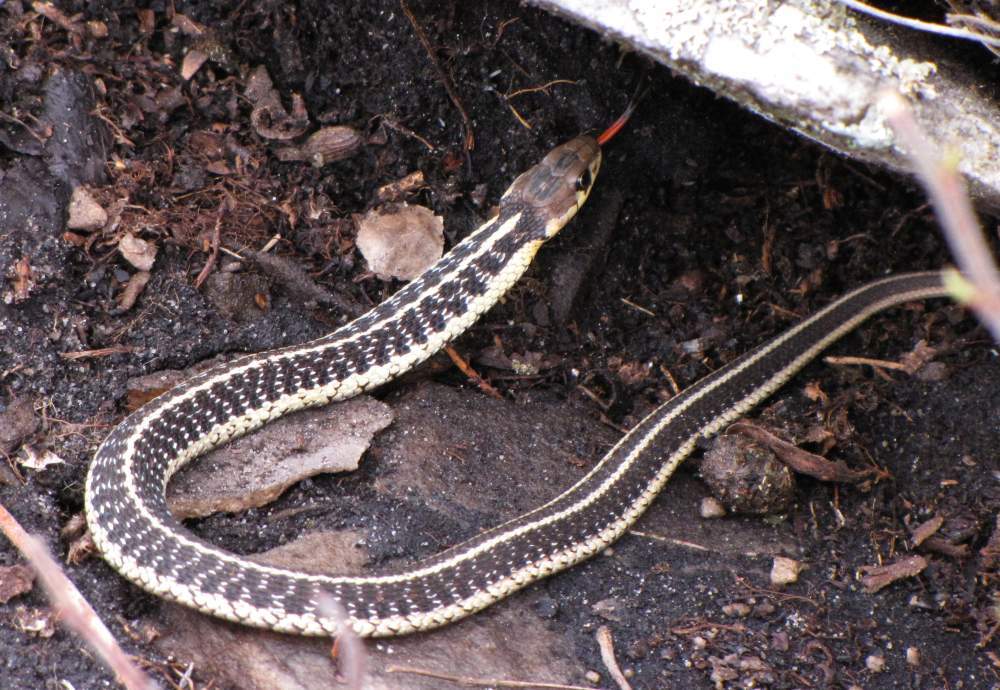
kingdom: Animalia
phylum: Chordata
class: Squamata
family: Colubridae
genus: Thamnophis
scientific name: Thamnophis sirtalis
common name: Common garter snake
